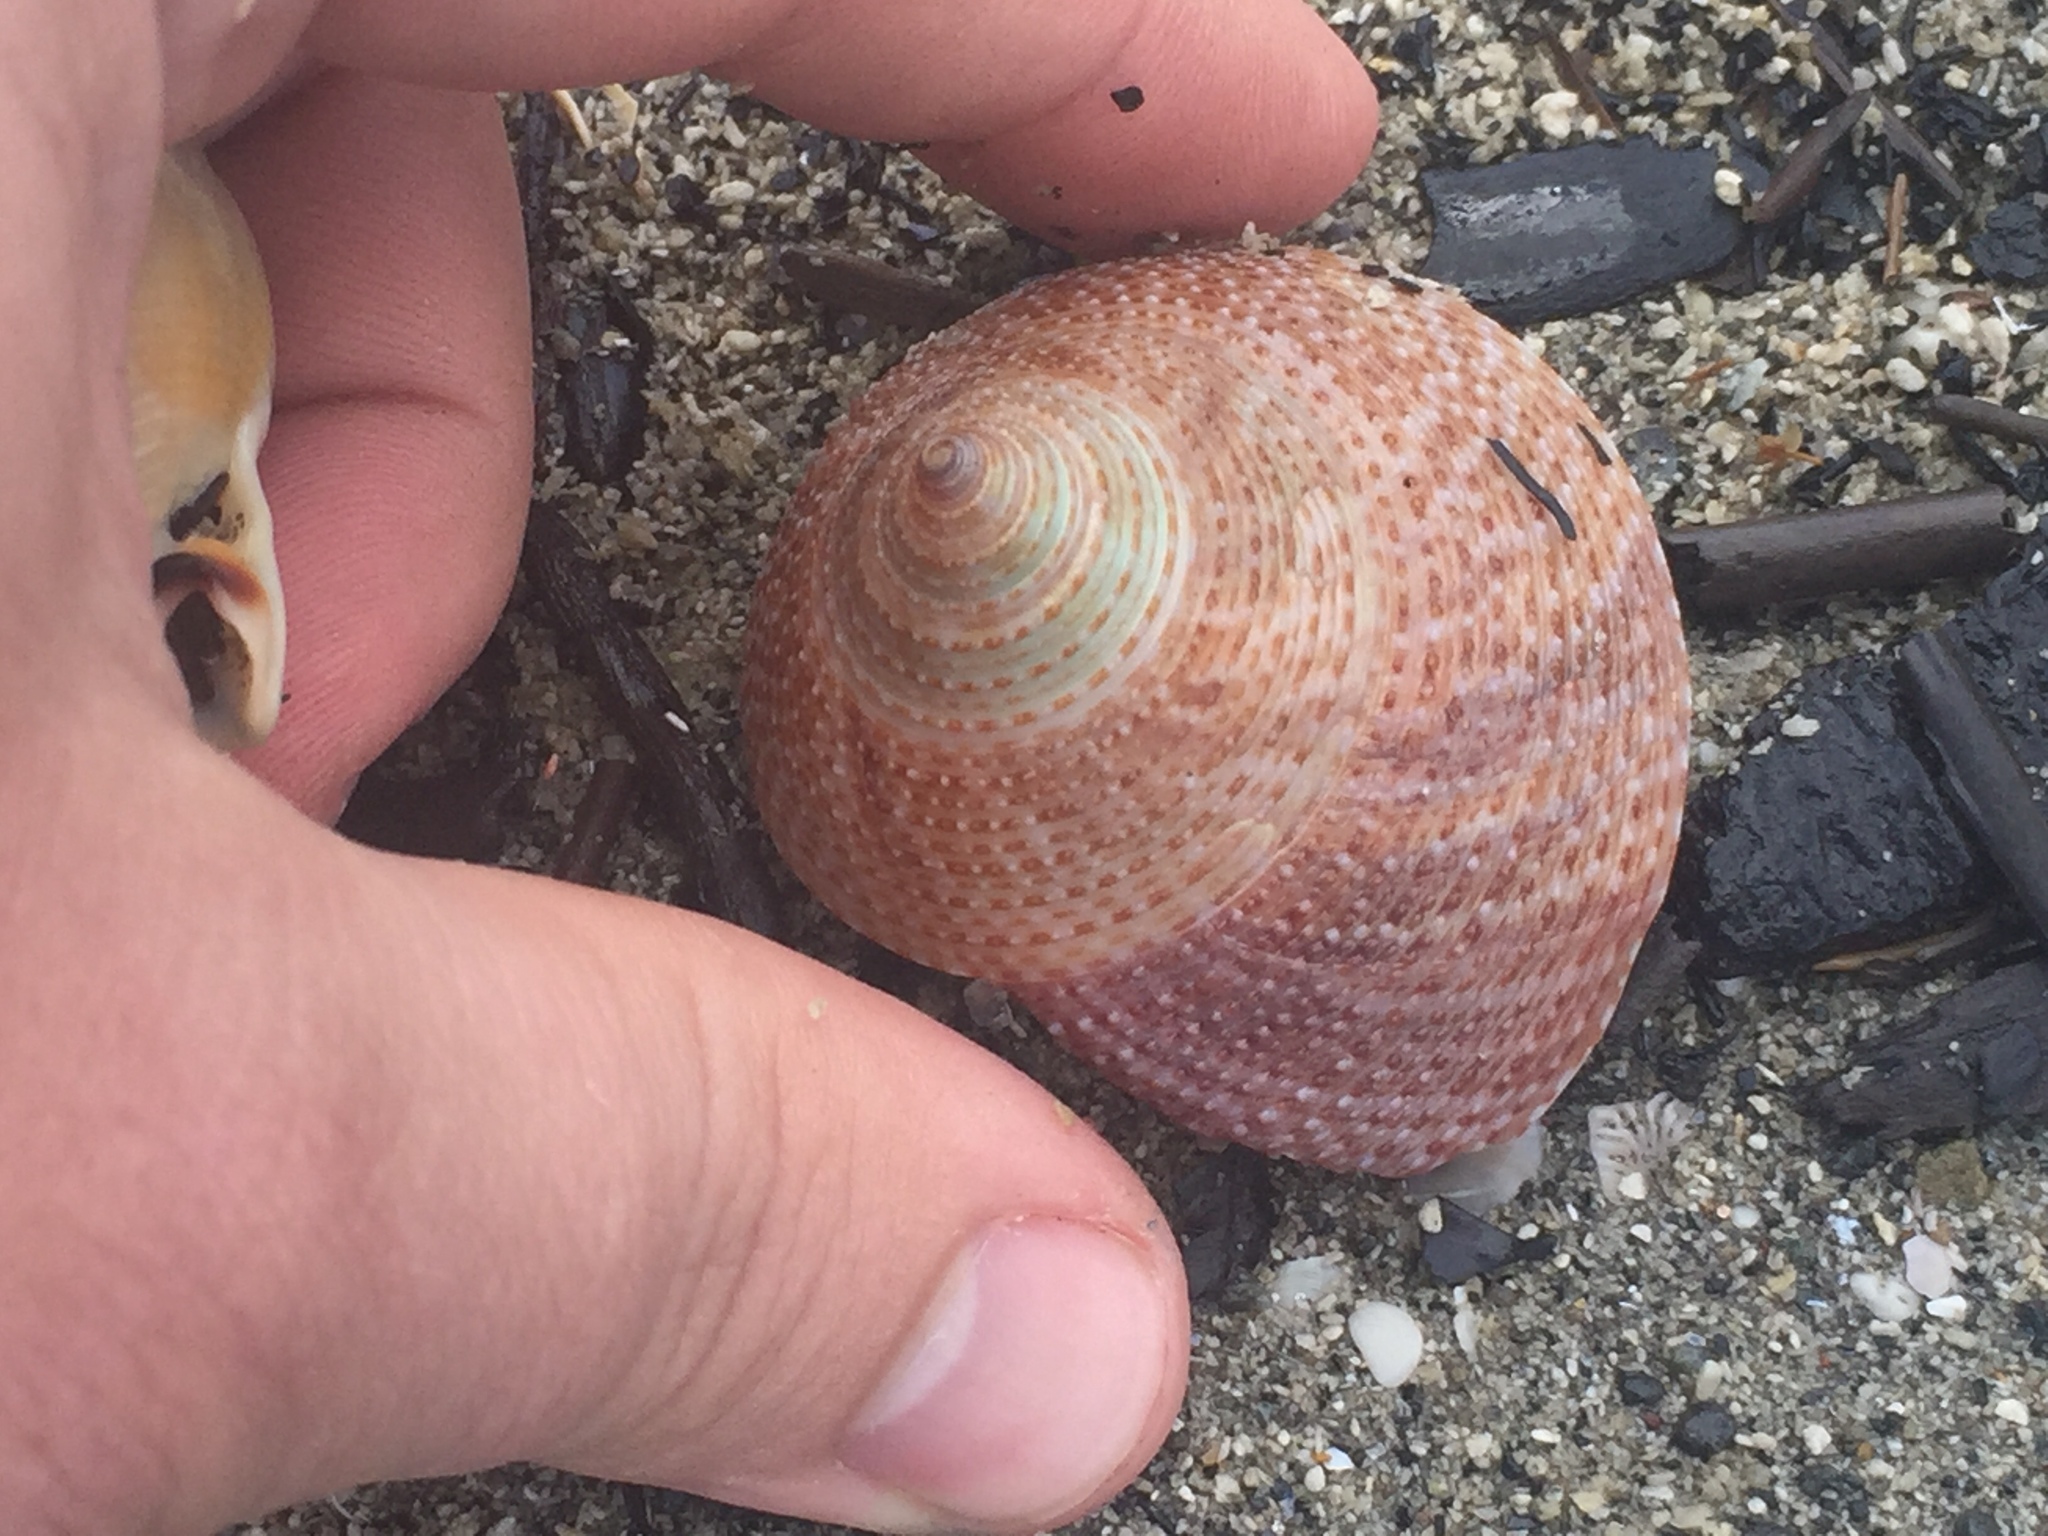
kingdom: Animalia
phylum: Mollusca
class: Gastropoda
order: Trochida
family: Calliostomatidae
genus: Maurea
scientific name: Maurea selecta
